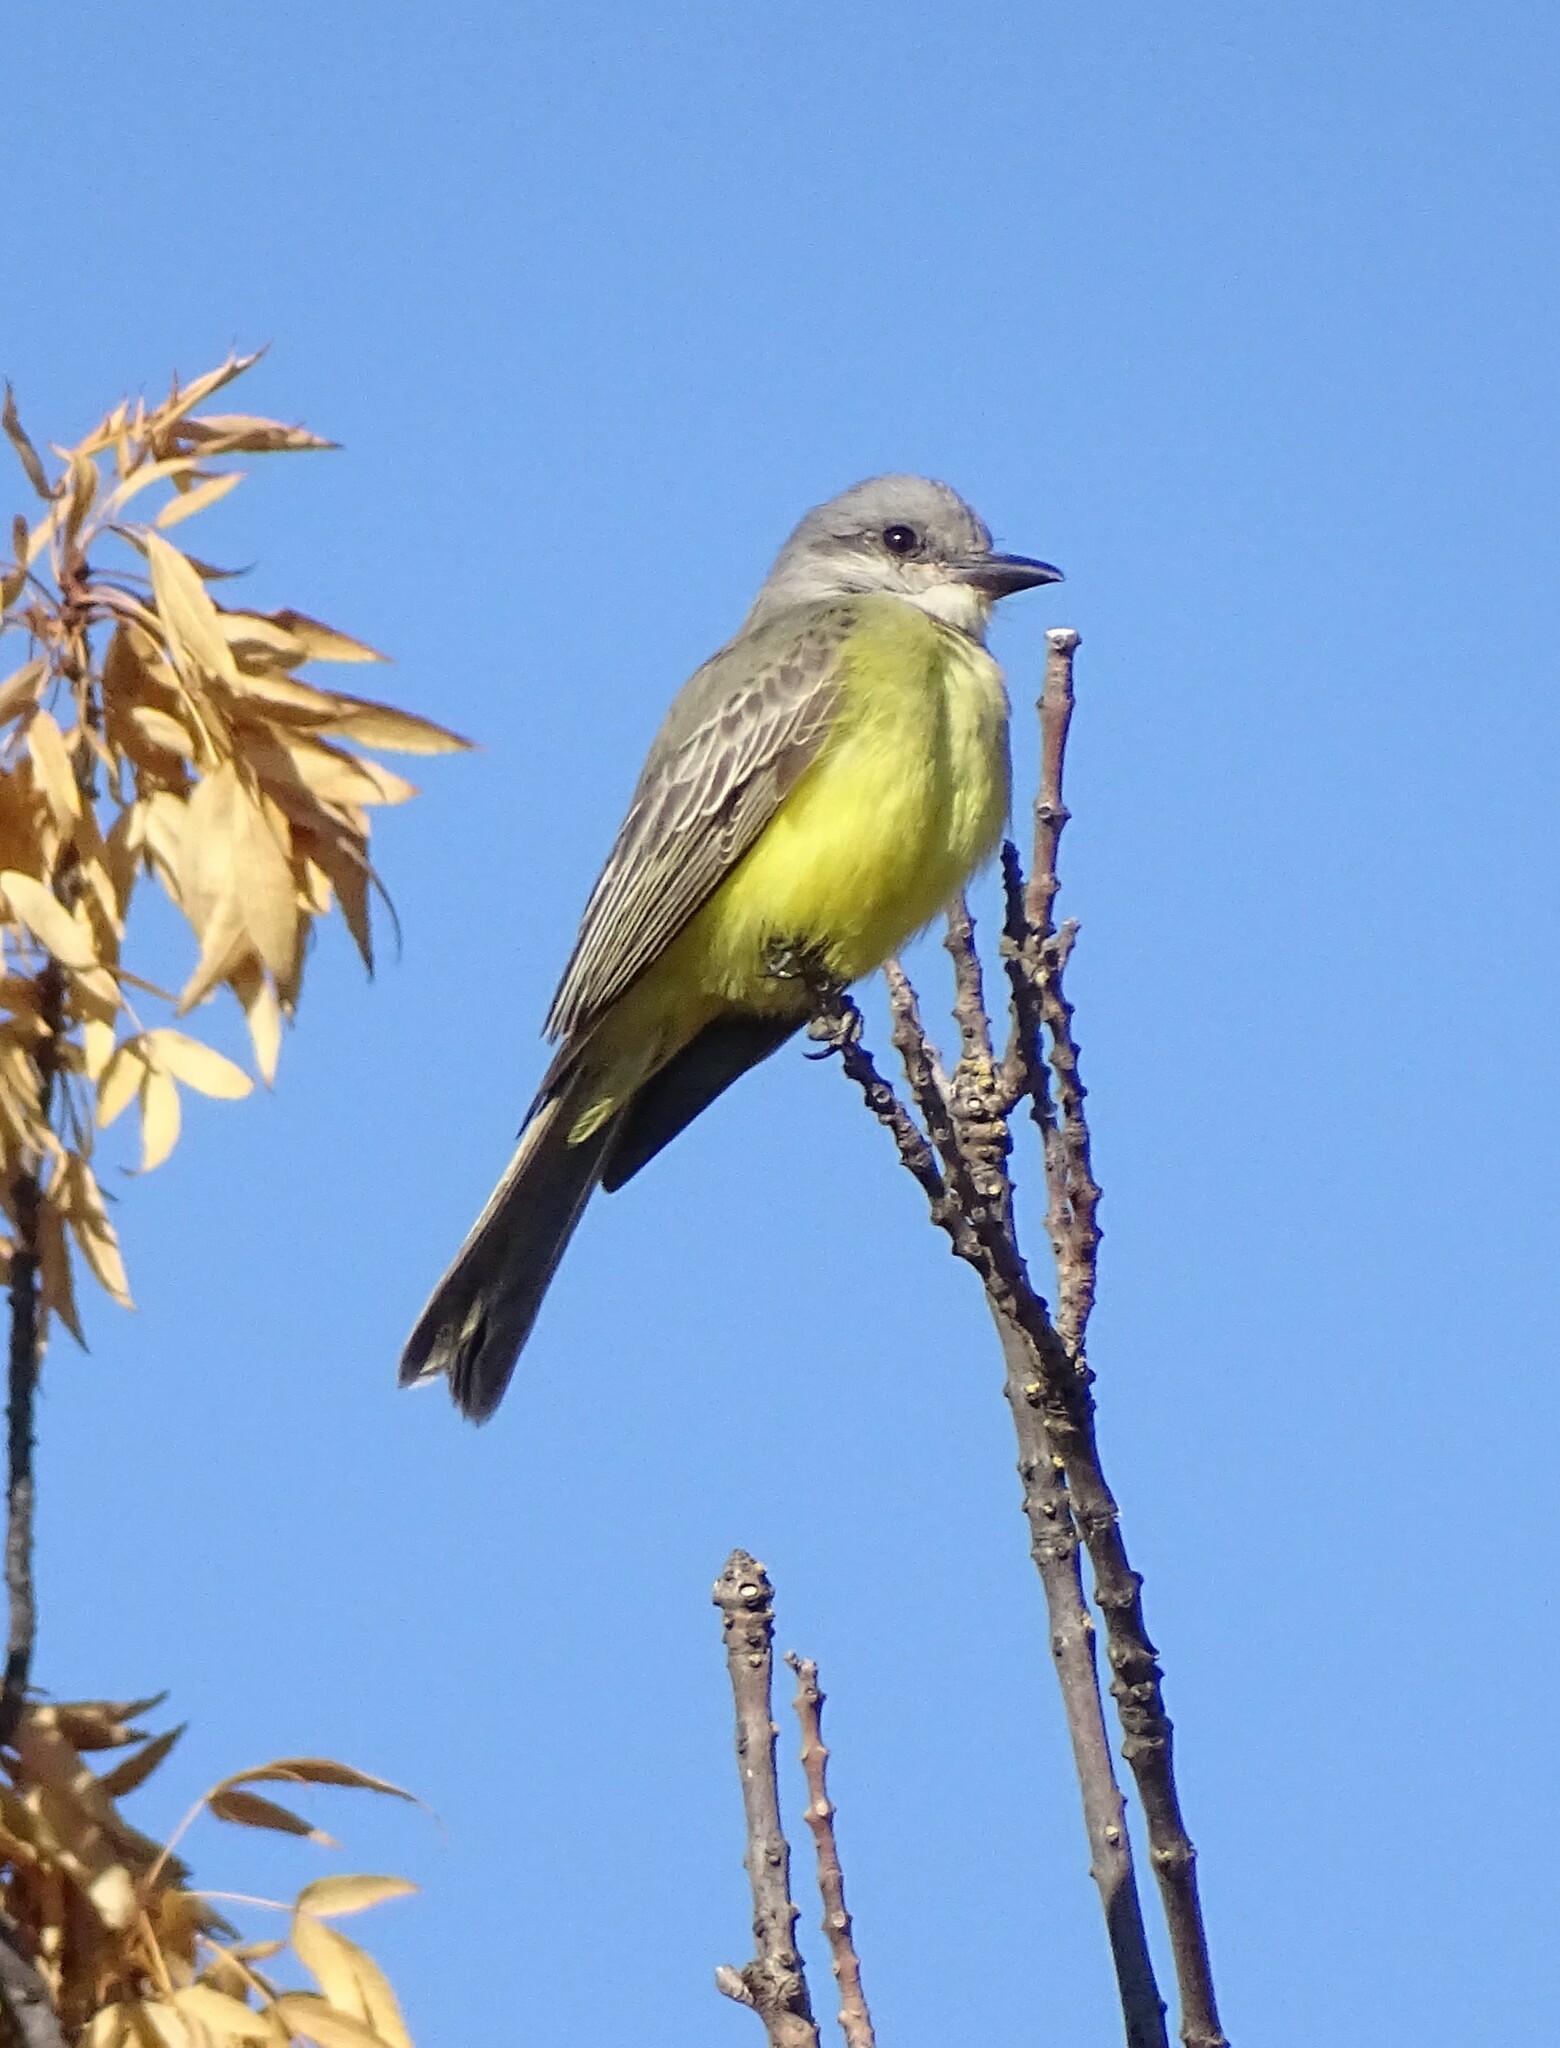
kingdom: Animalia
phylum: Chordata
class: Aves
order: Passeriformes
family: Tyrannidae
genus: Tyrannus
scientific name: Tyrannus melancholicus
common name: Tropical kingbird
